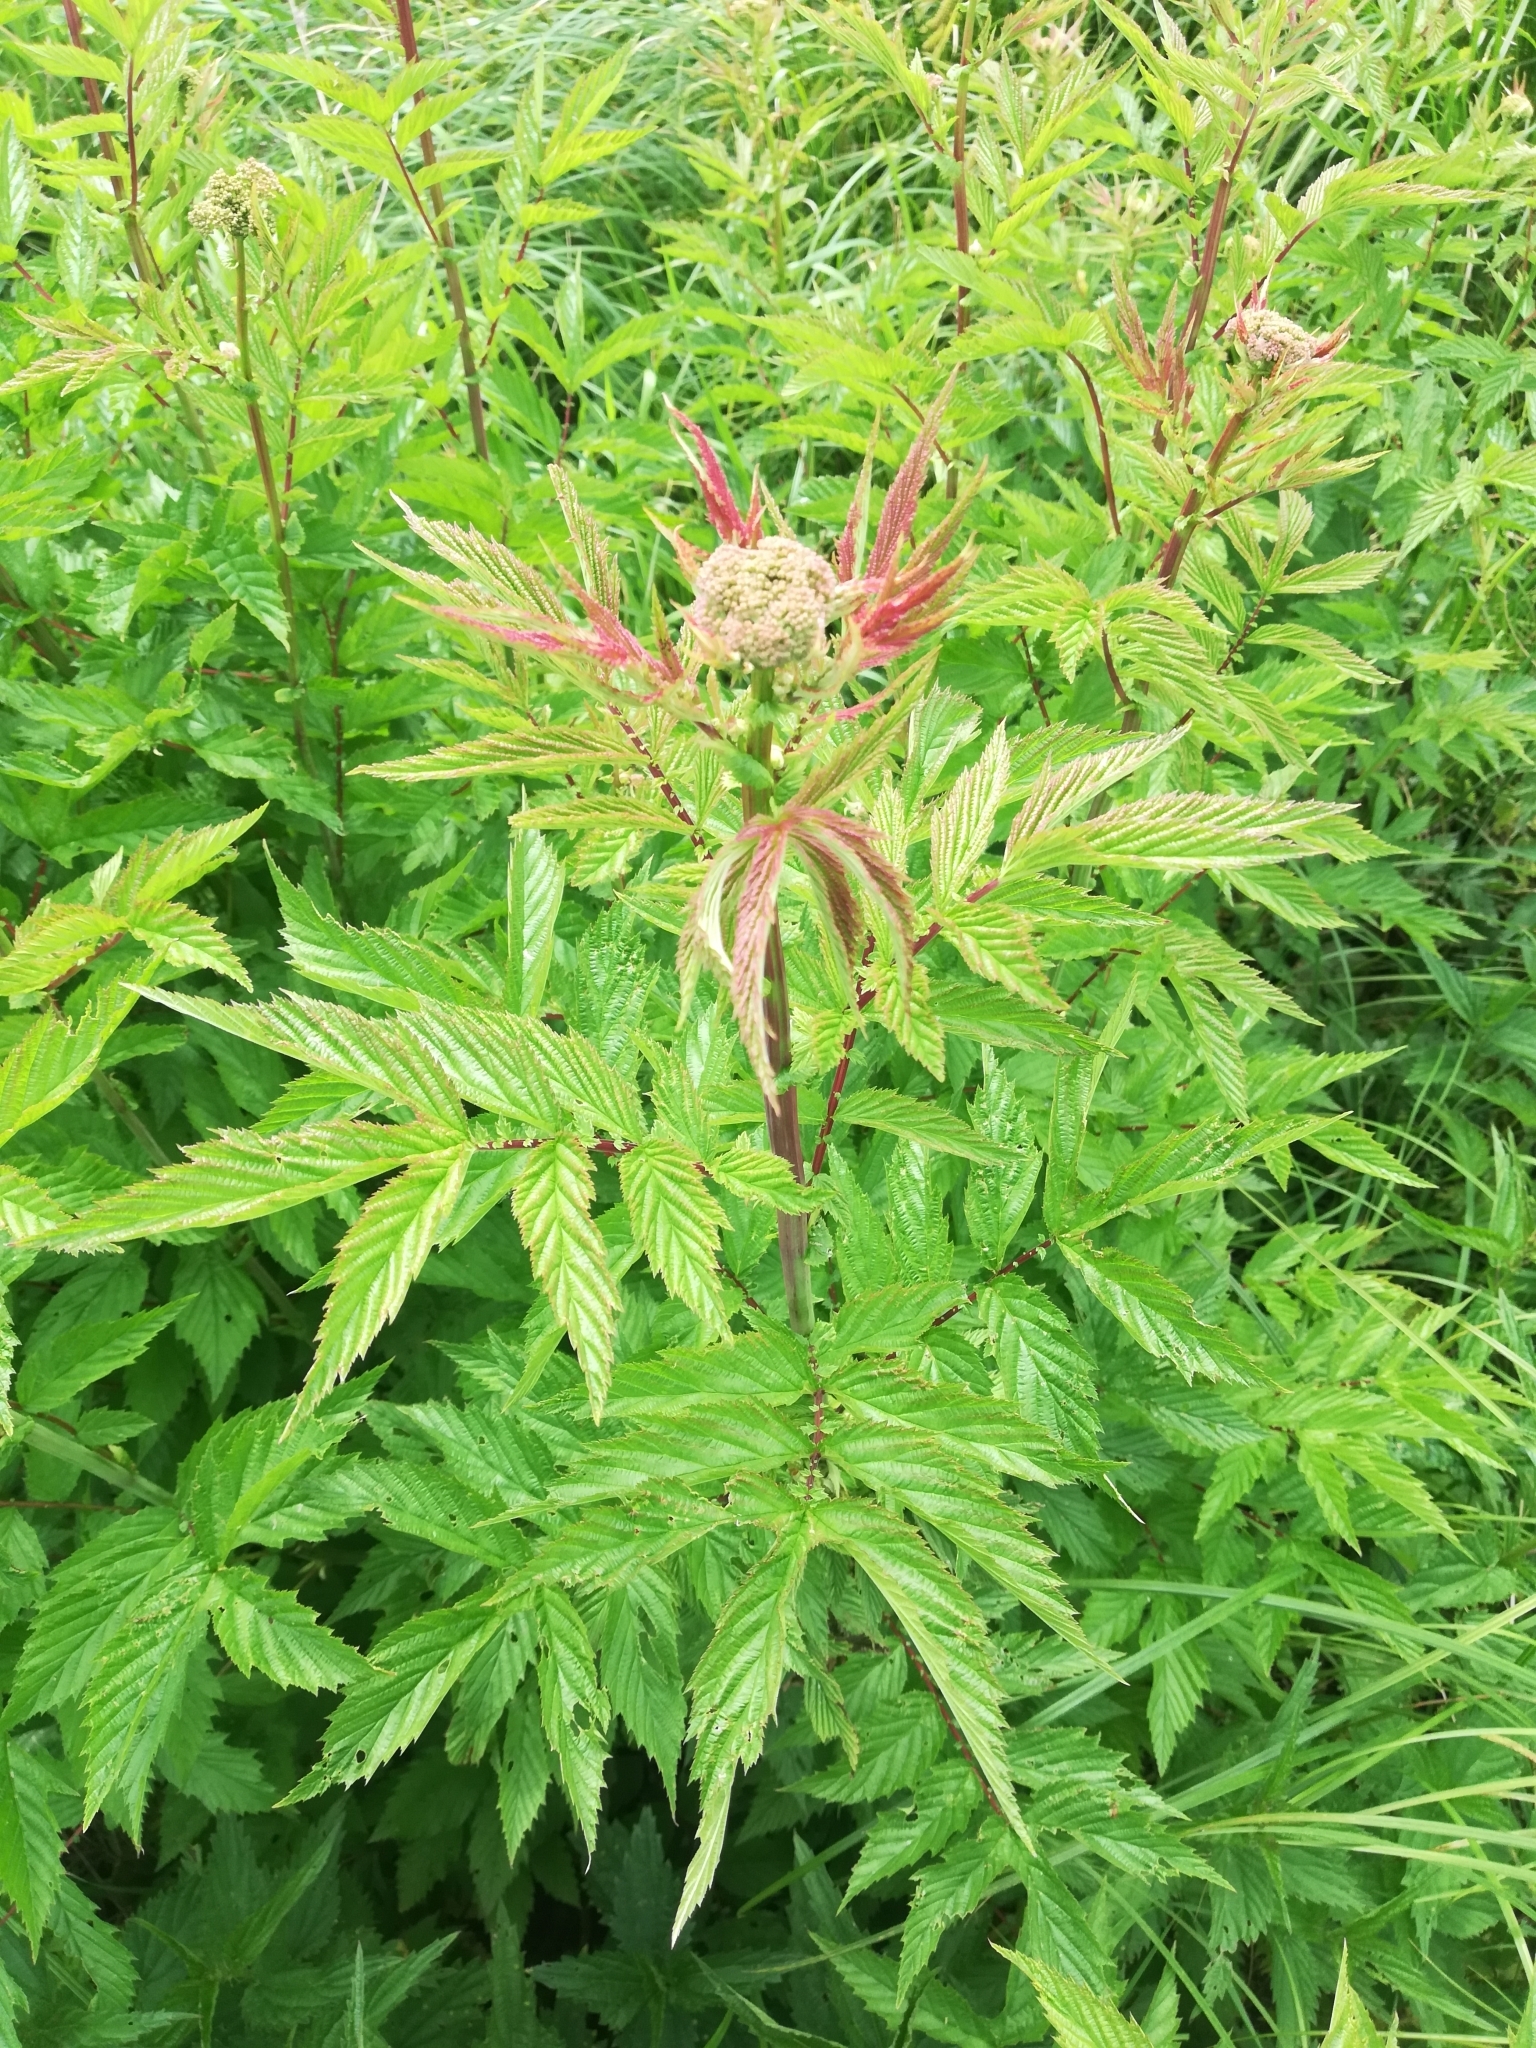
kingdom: Plantae
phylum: Tracheophyta
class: Magnoliopsida
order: Rosales
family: Rosaceae
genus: Filipendula
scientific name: Filipendula ulmaria
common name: Meadowsweet
